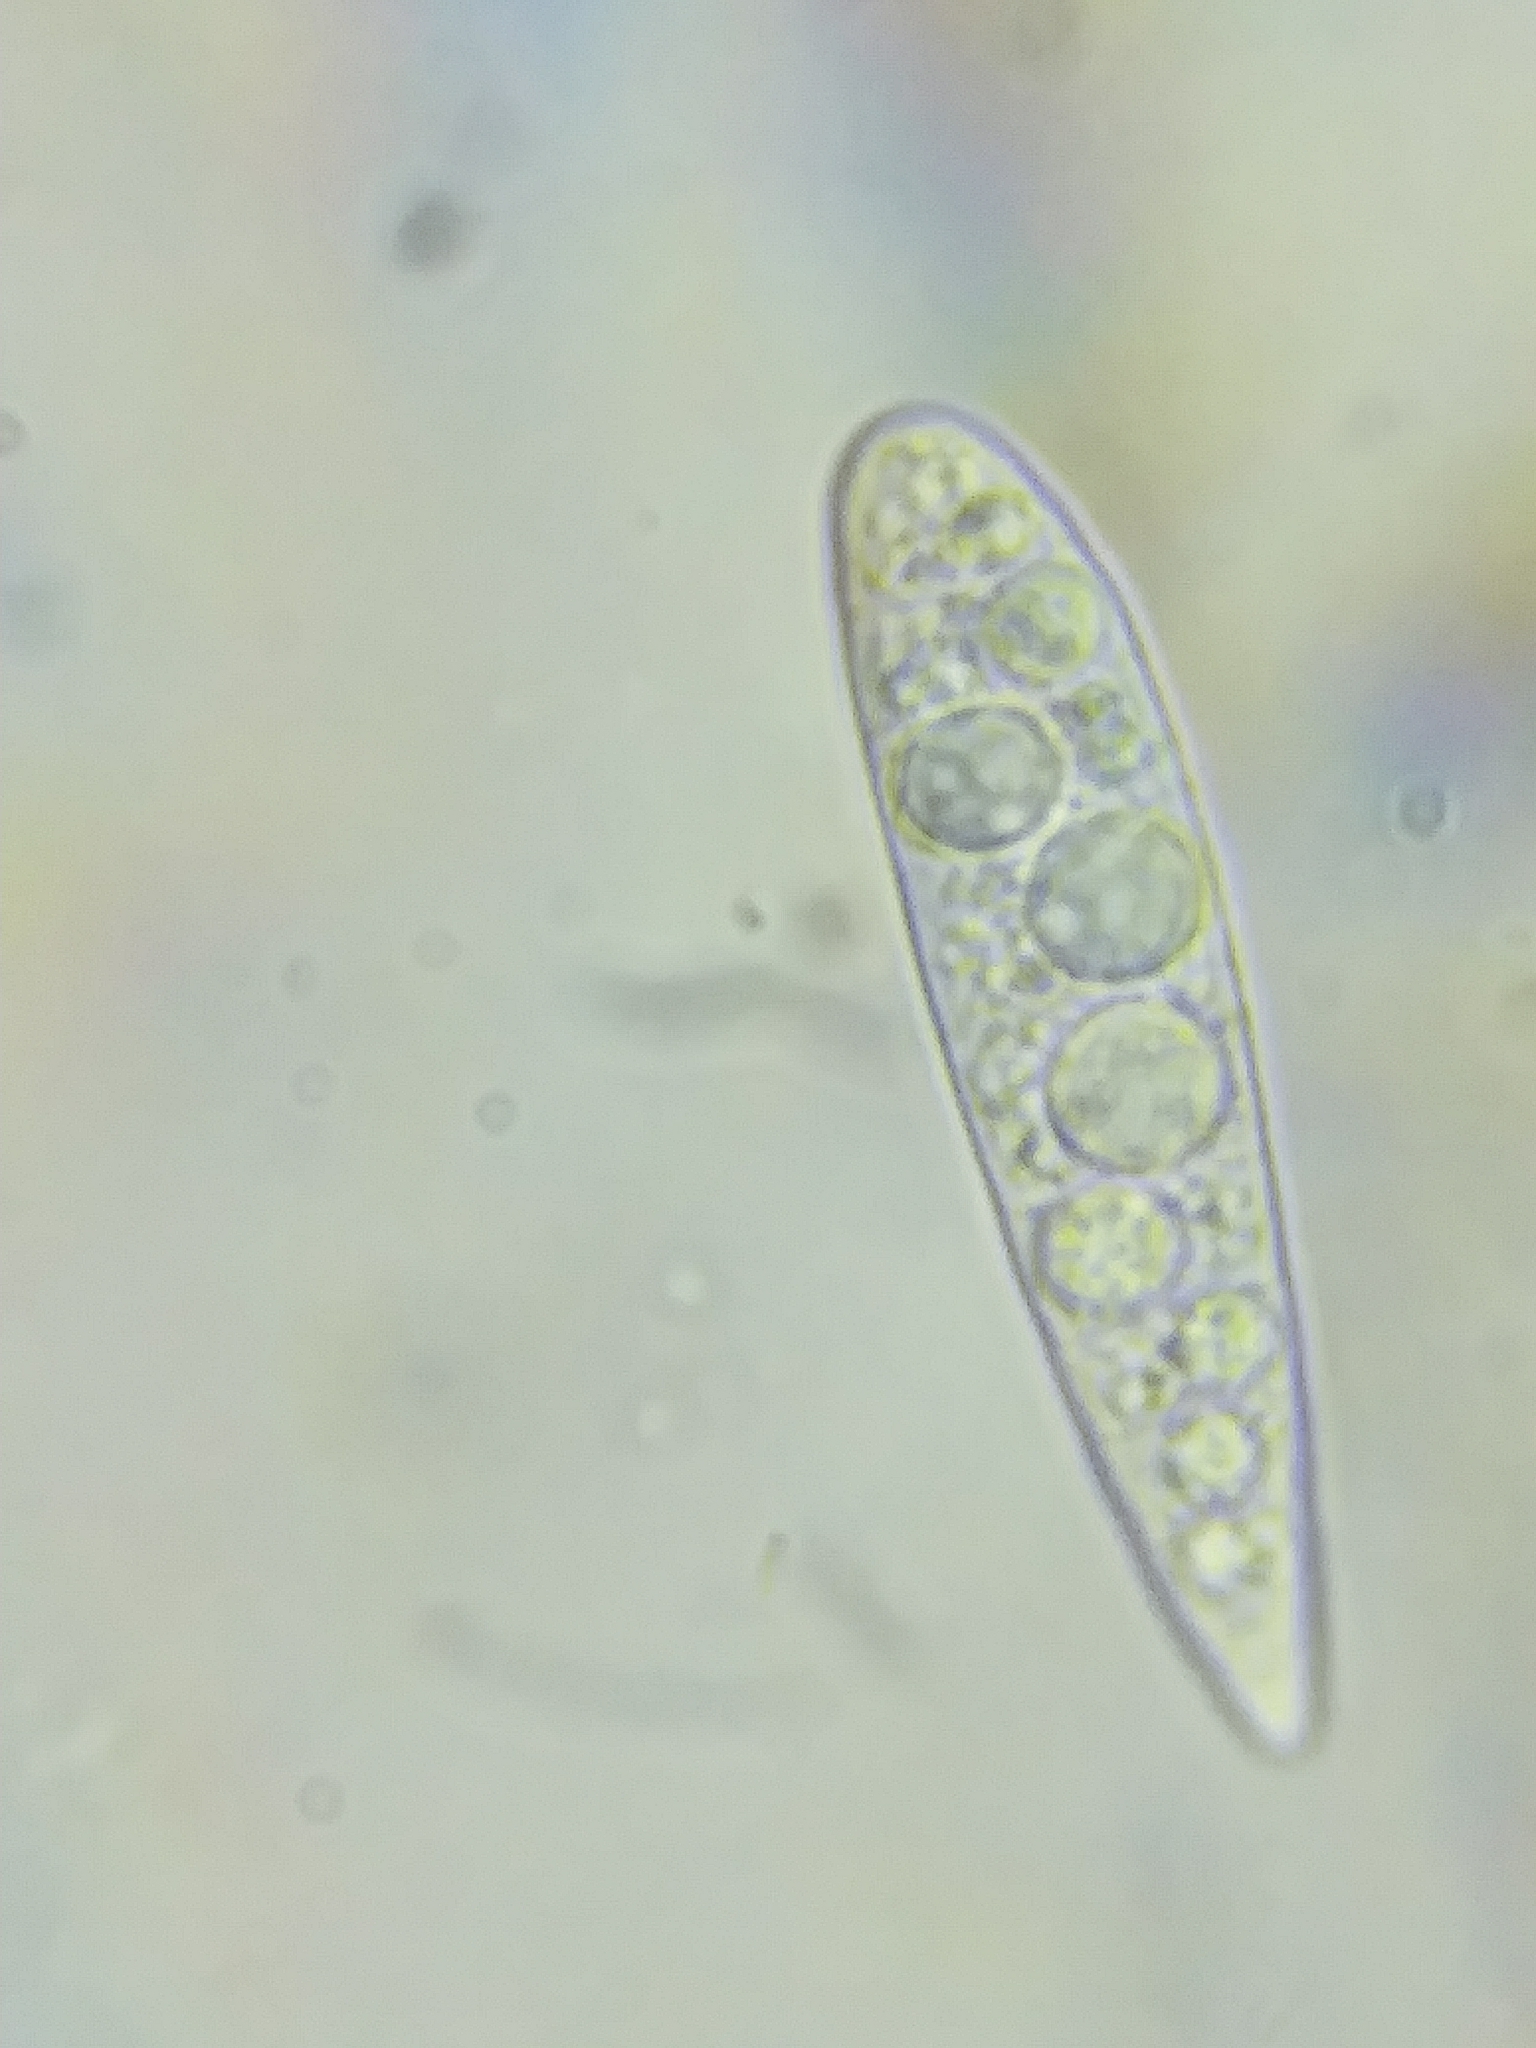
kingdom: Fungi
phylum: Ascomycota
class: Dothideomycetes
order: Patellariales
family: Patellariaceae
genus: Patellaria
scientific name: Patellaria atrata
